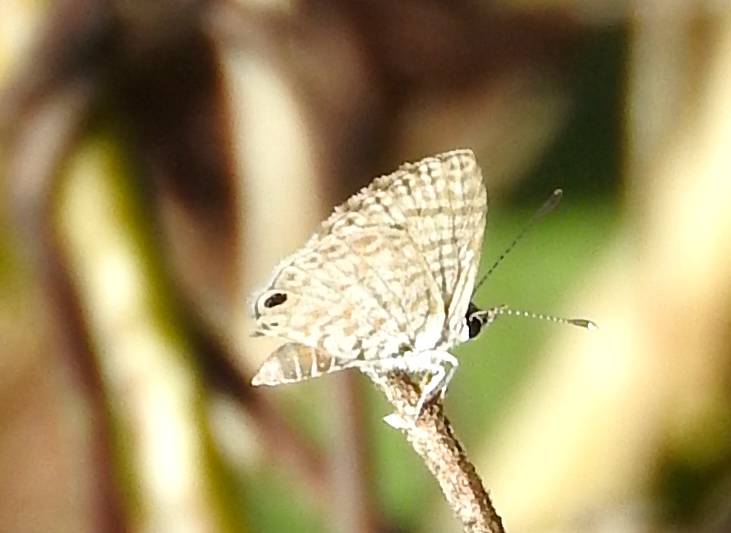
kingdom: Animalia
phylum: Arthropoda
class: Insecta
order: Lepidoptera
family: Lycaenidae
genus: Leptotes
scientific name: Leptotes cassius
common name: Cassius blue
